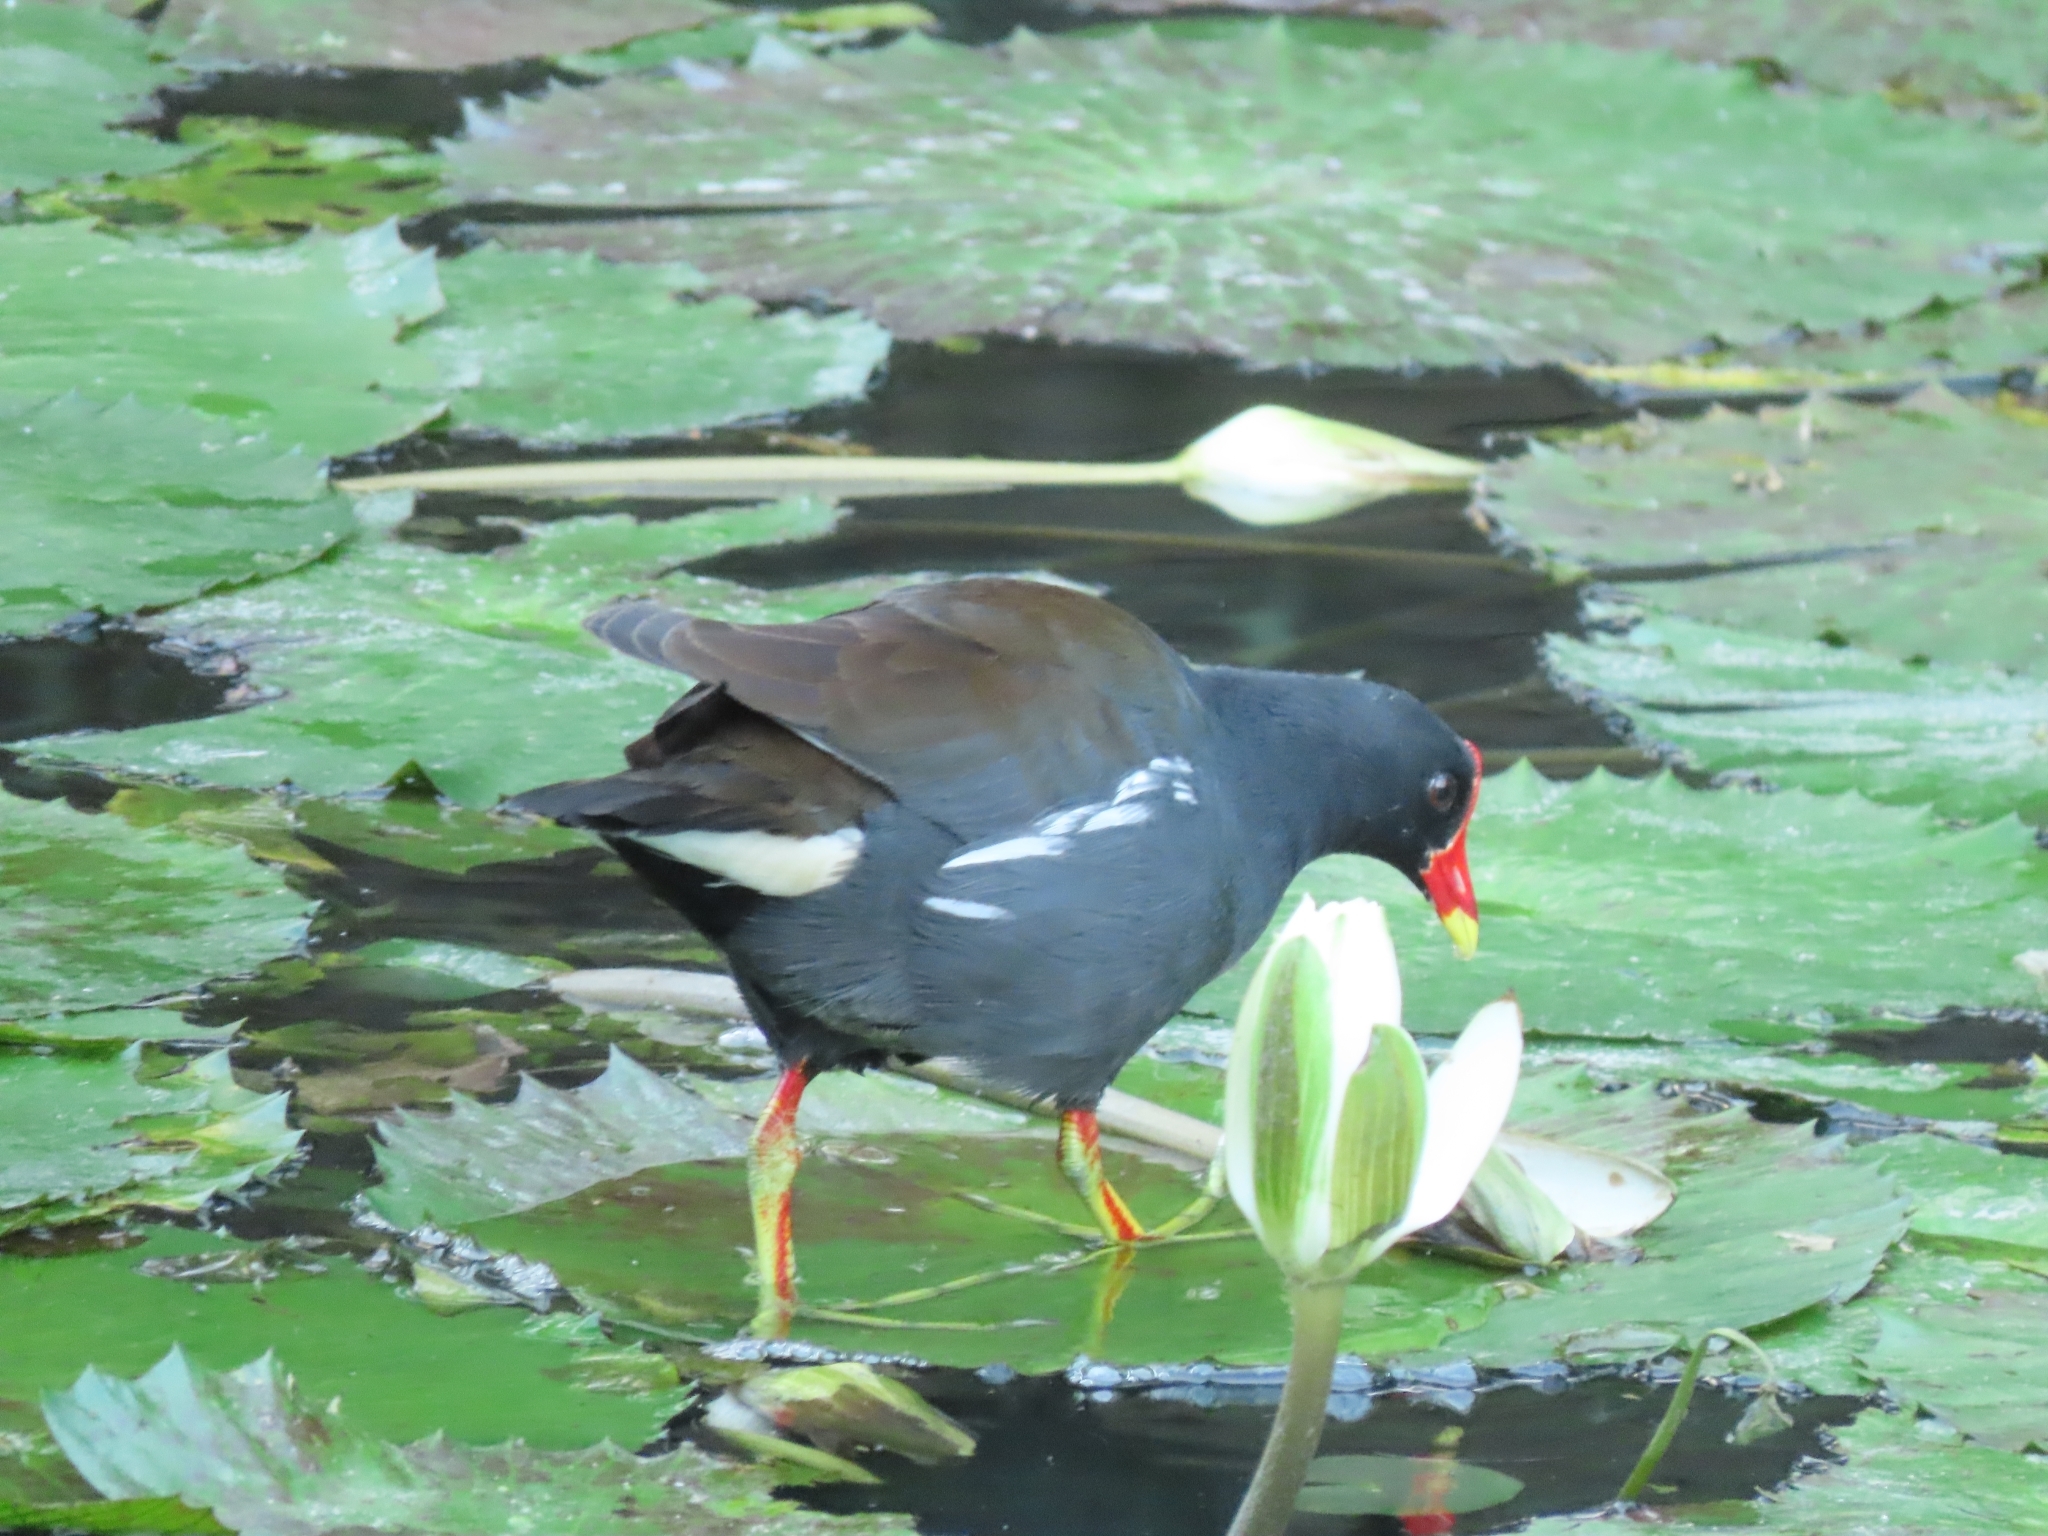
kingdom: Animalia
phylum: Chordata
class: Aves
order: Gruiformes
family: Rallidae
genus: Gallinula
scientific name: Gallinula chloropus
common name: Common moorhen
